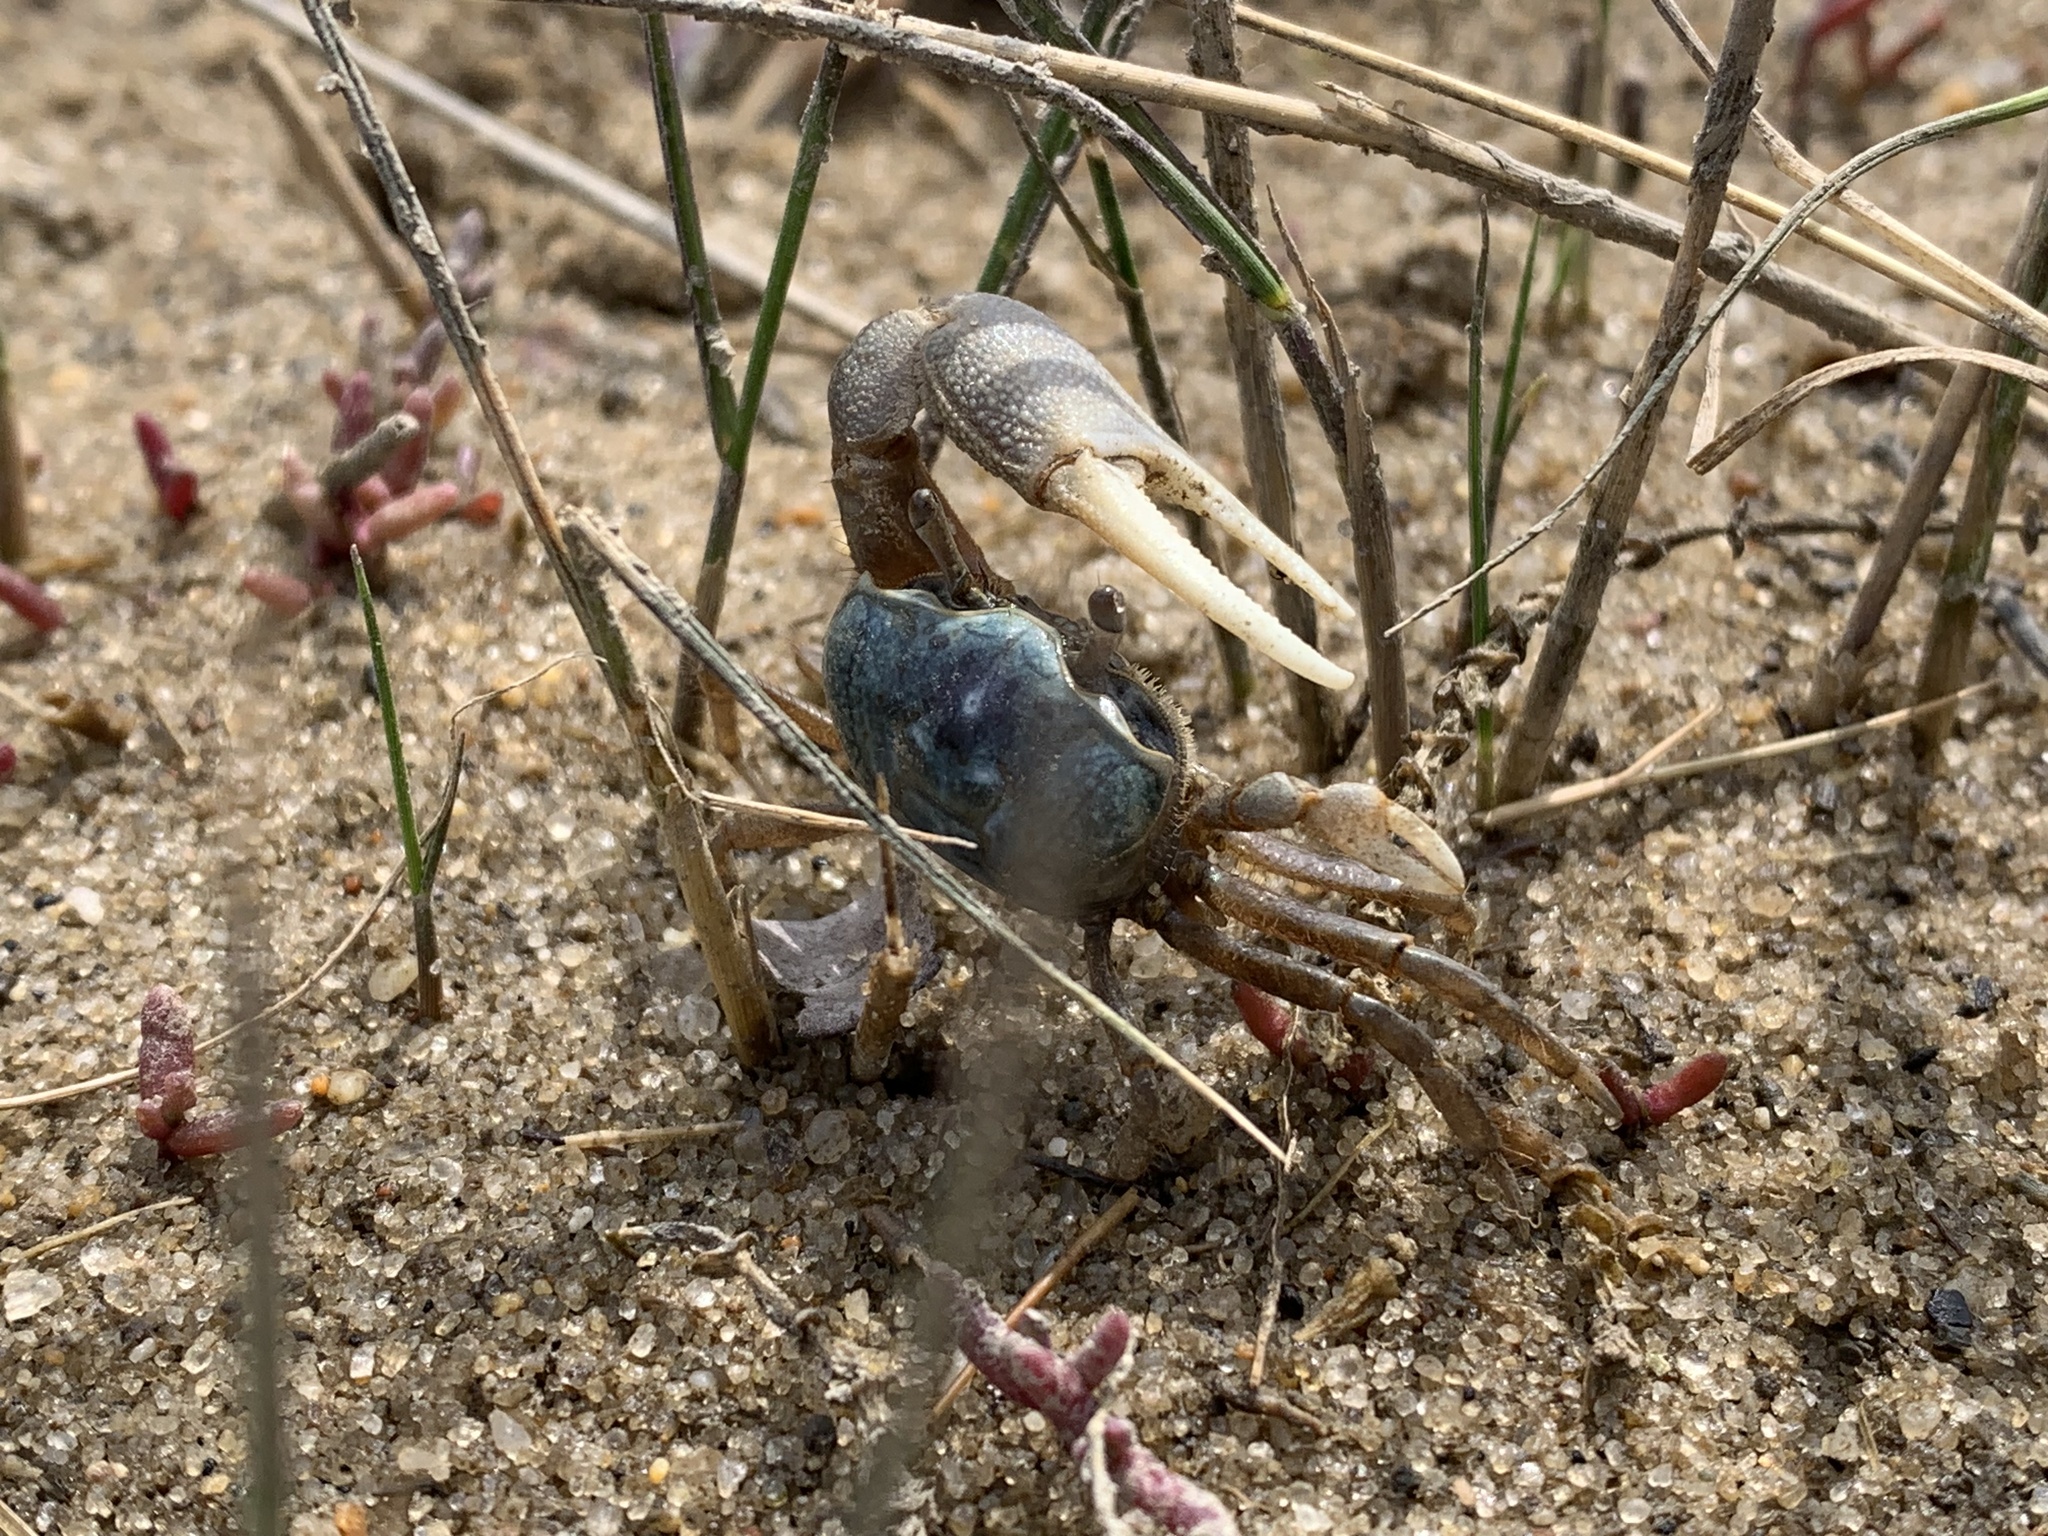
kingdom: Animalia
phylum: Arthropoda
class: Malacostraca
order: Decapoda
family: Ocypodidae
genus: Leptuca
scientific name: Leptuca pugilator
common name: Atlantic sand fiddler crab
